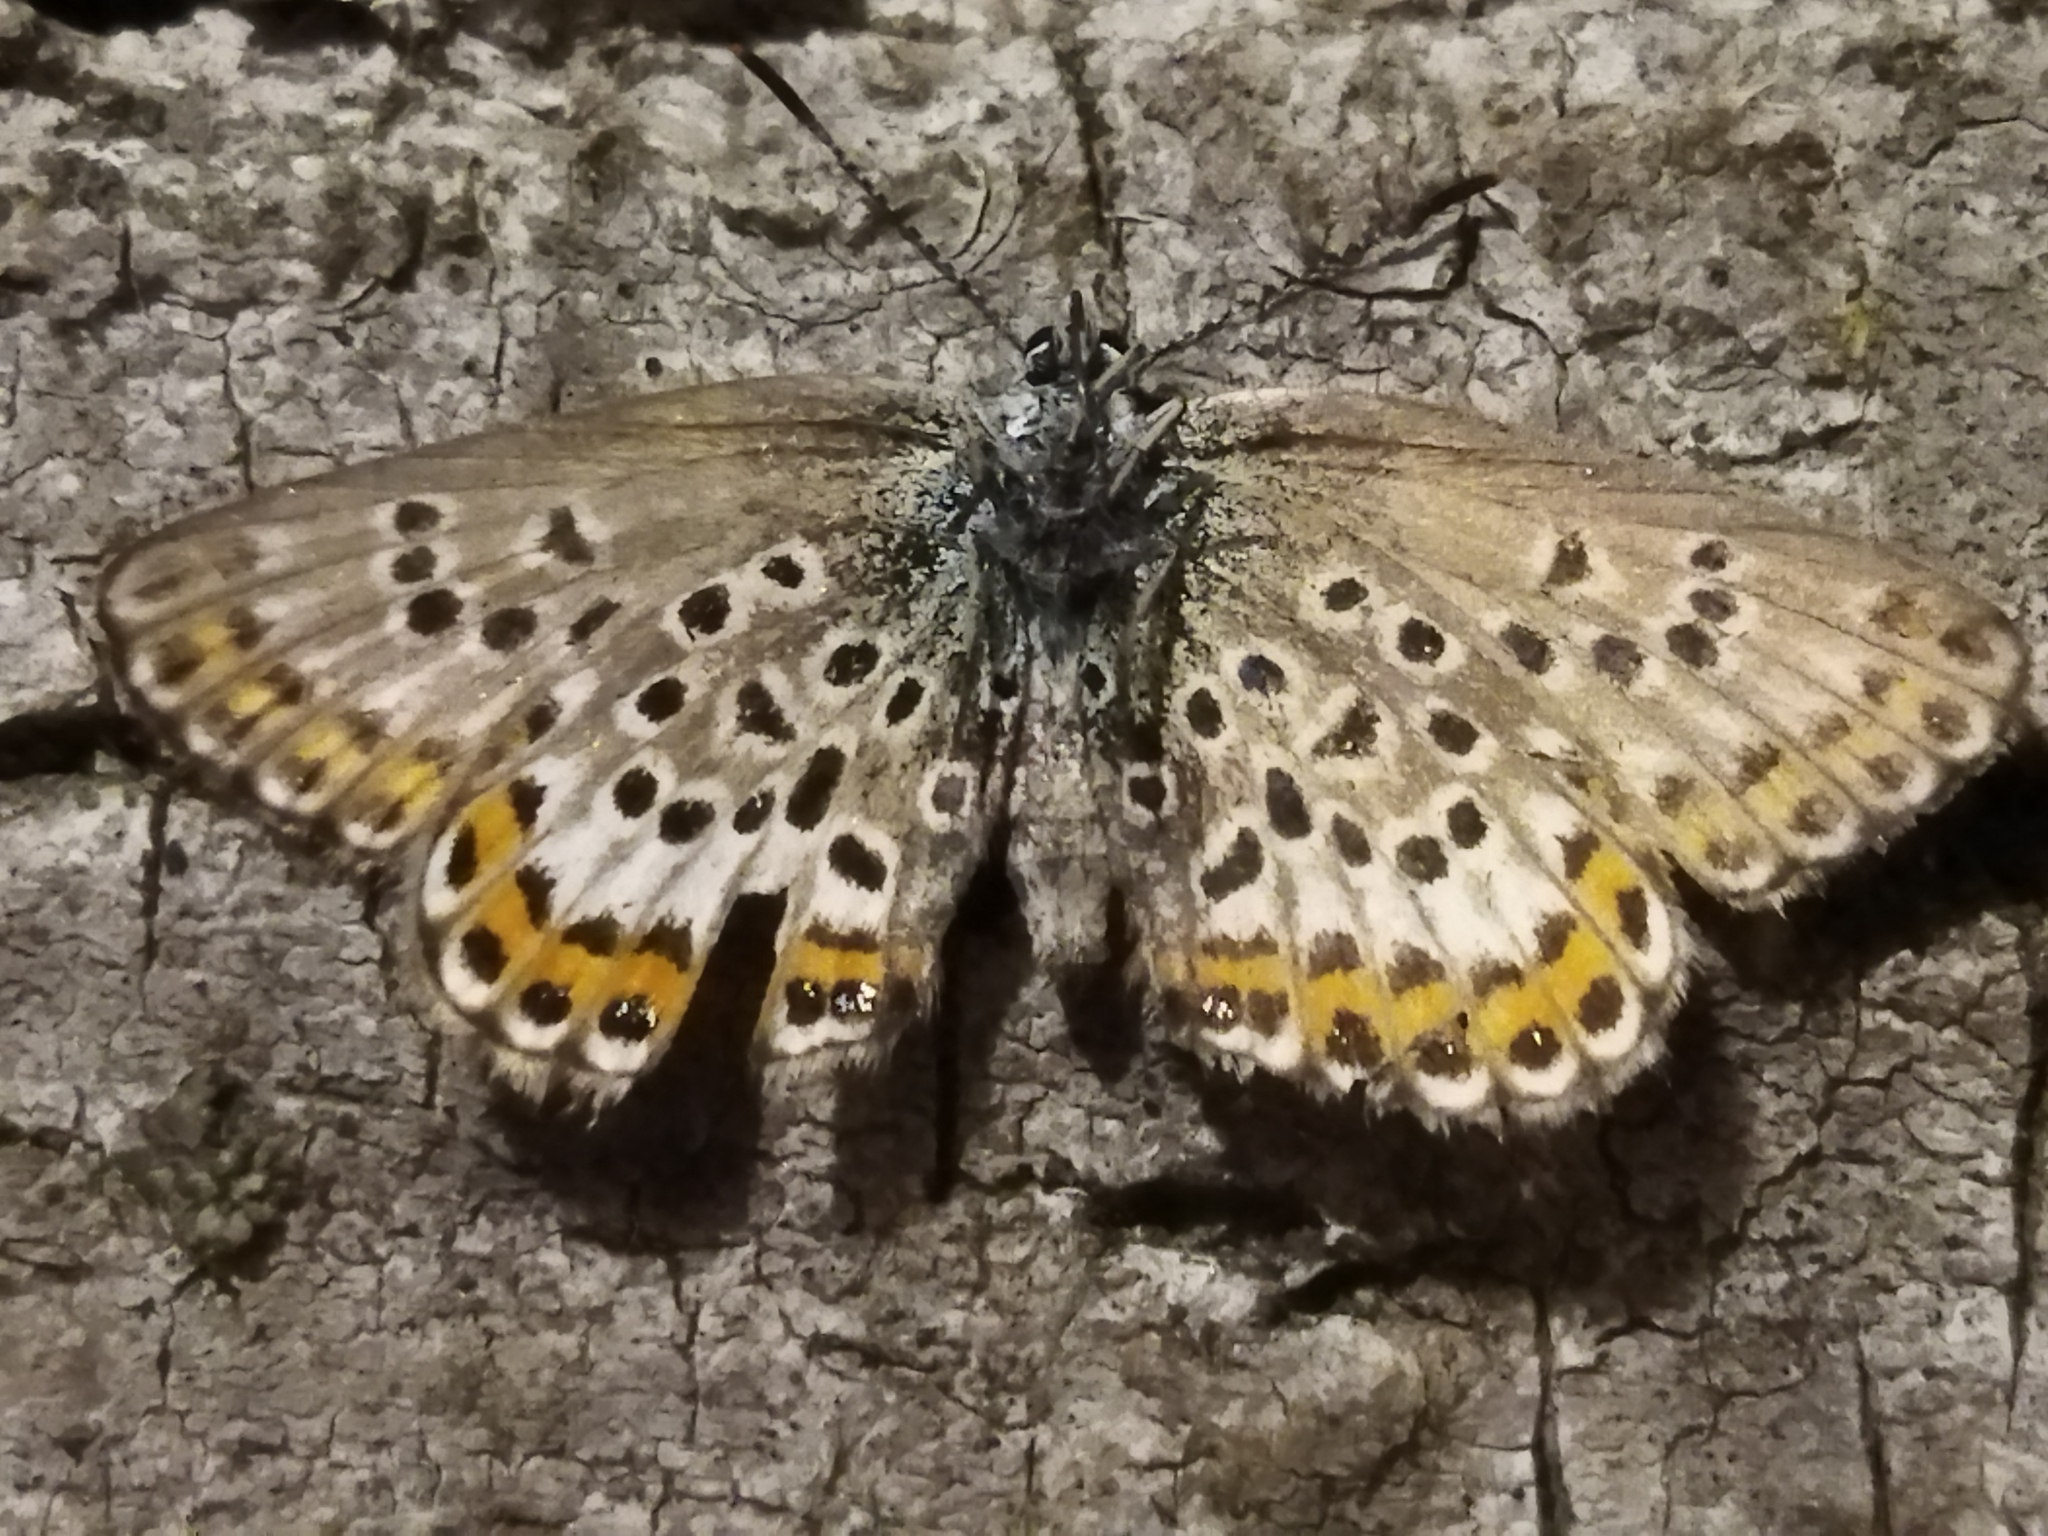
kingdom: Animalia
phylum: Arthropoda
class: Insecta
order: Lepidoptera
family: Lycaenidae
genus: Plebejus
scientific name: Plebejus argus
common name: Silver-studded blue
